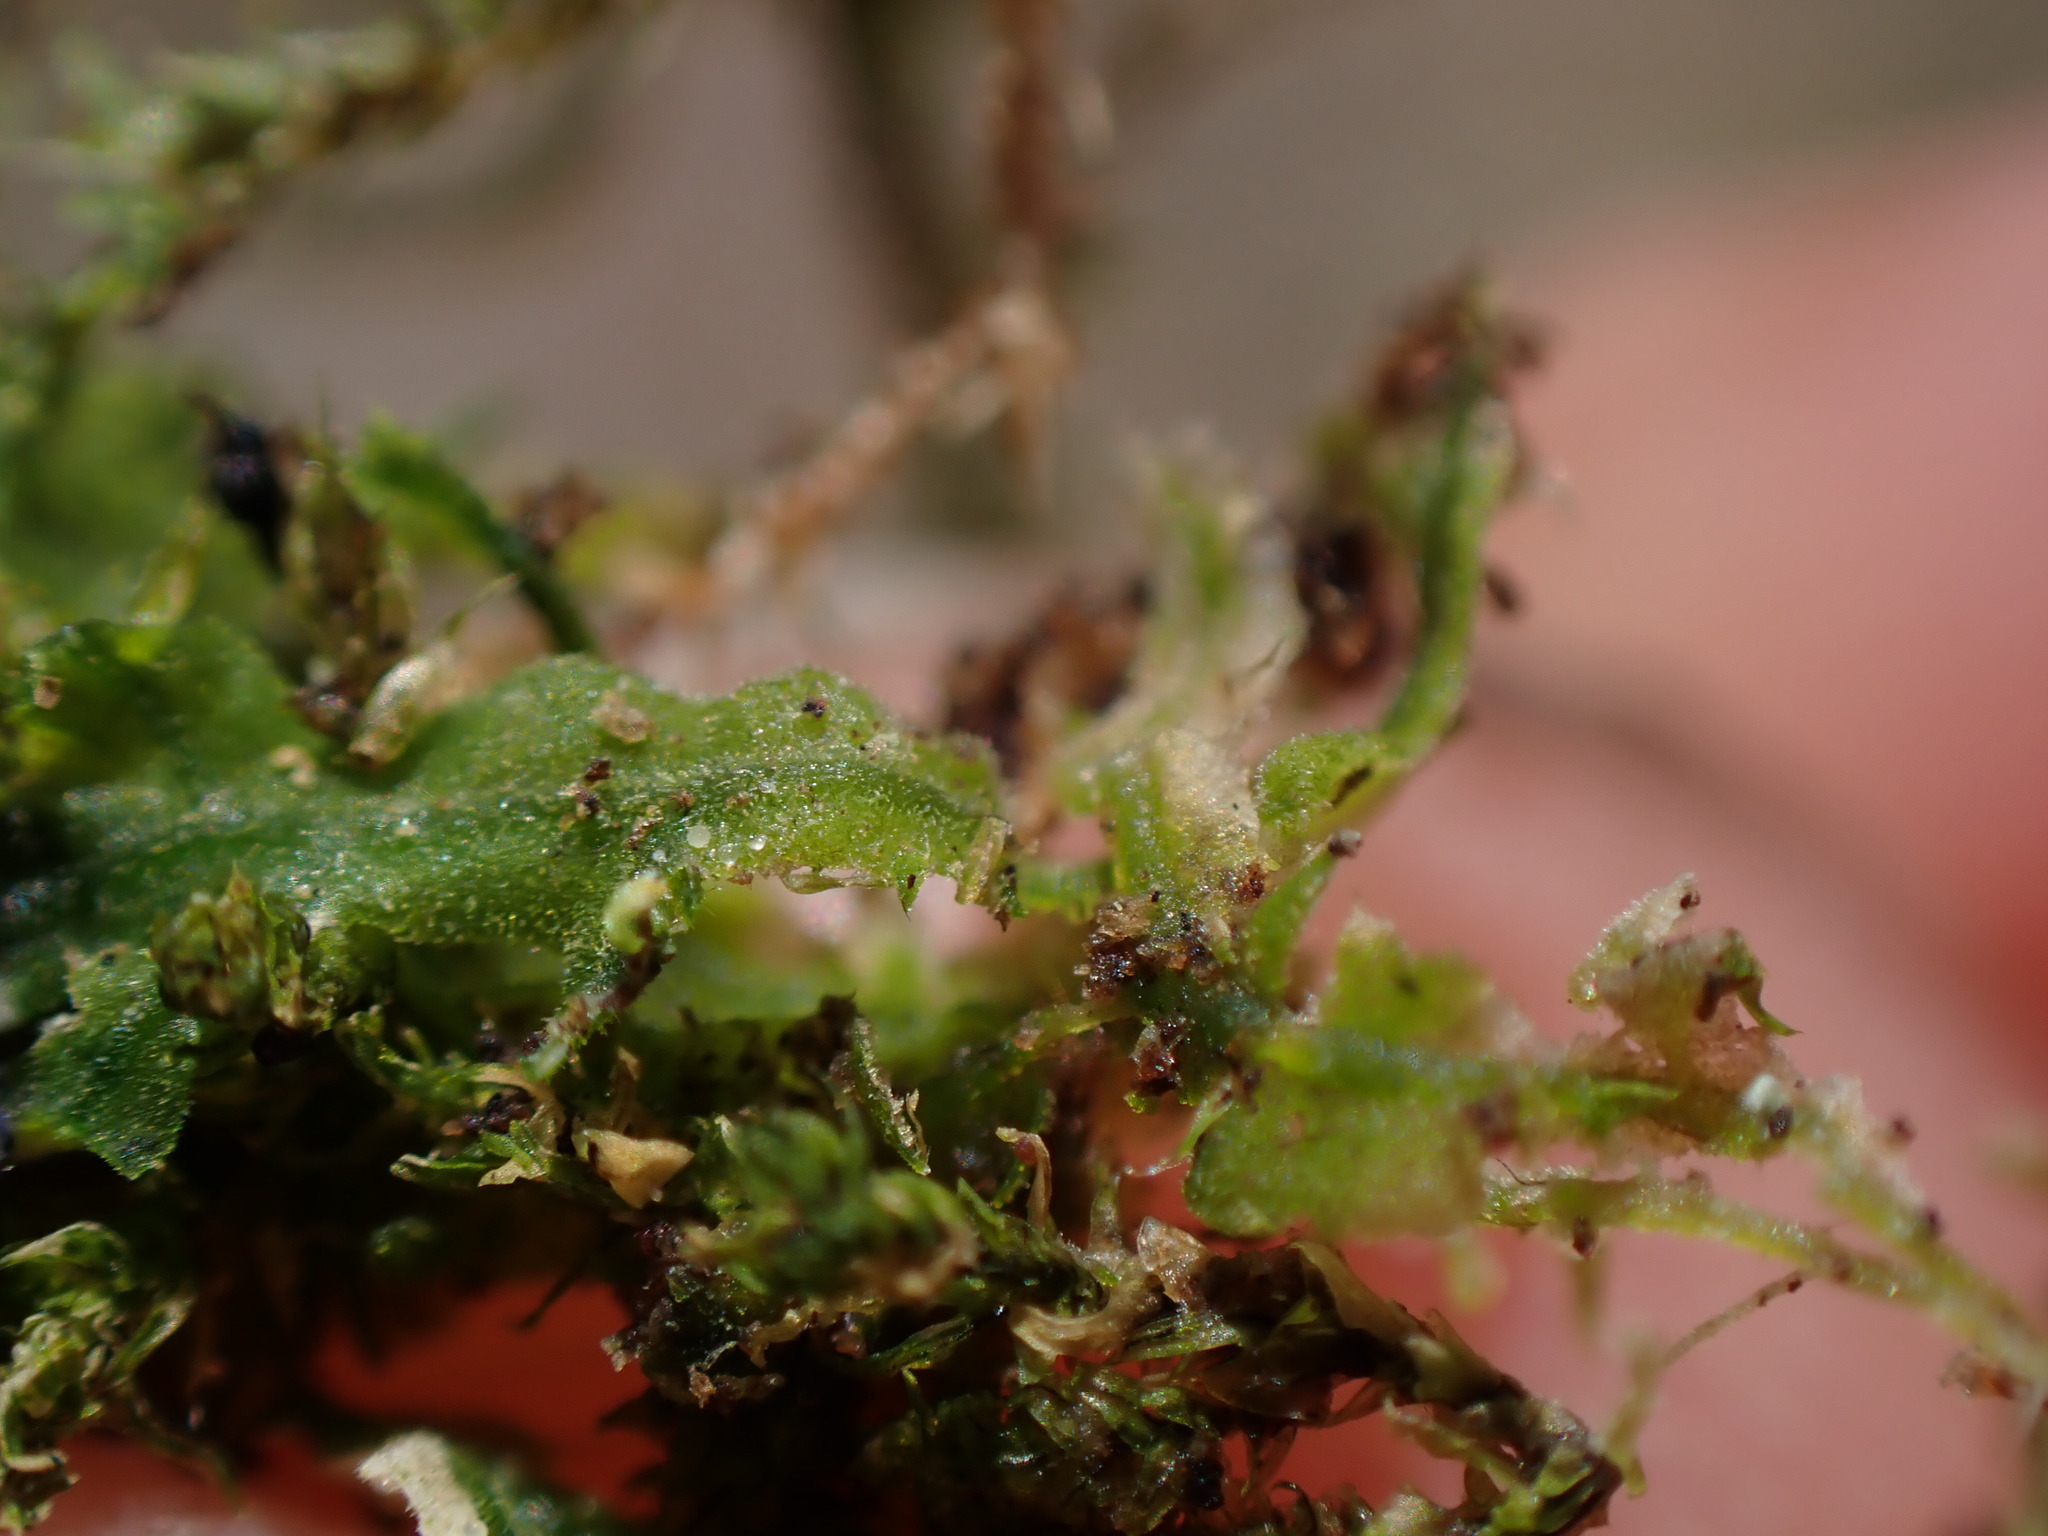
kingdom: Plantae
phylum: Marchantiophyta
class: Jungermanniopsida
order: Metzgeriales
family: Metzgeriaceae
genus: Metzgeria
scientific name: Metzgeria pubescens
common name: Downy veilwort
